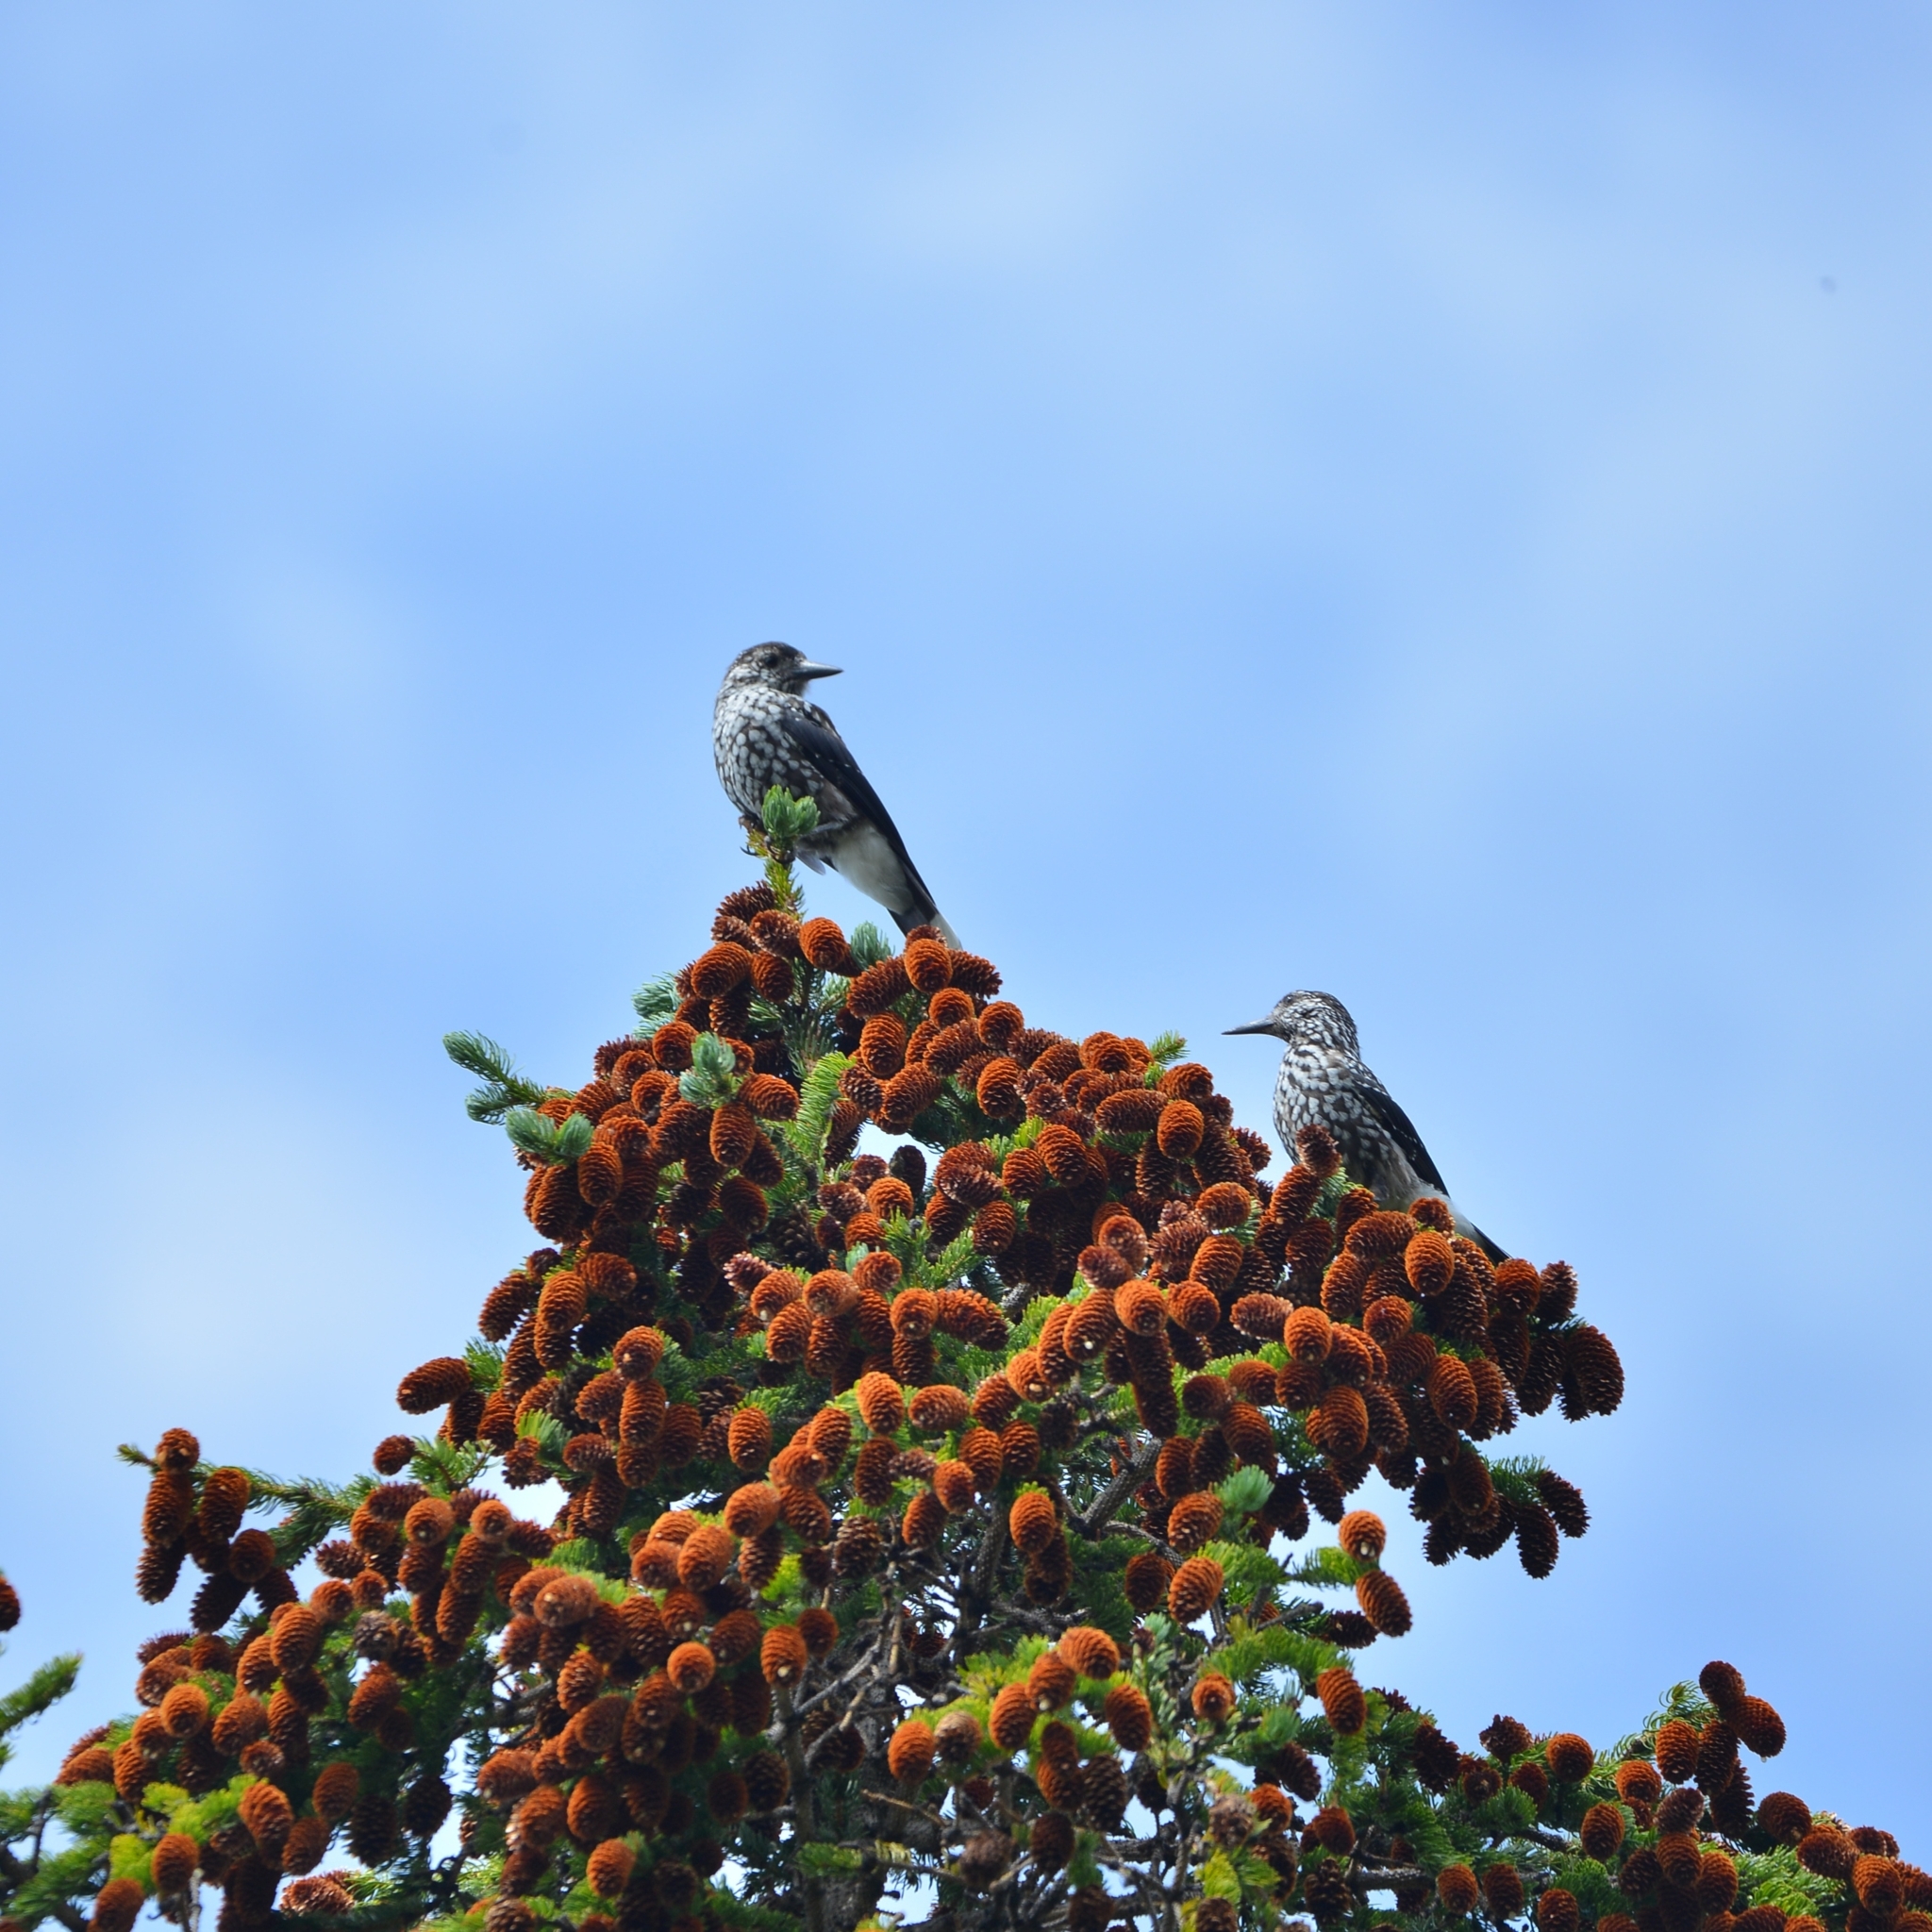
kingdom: Animalia
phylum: Chordata
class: Aves
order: Passeriformes
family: Corvidae
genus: Nucifraga
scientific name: Nucifraga caryocatactes
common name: Spotted nutcracker
